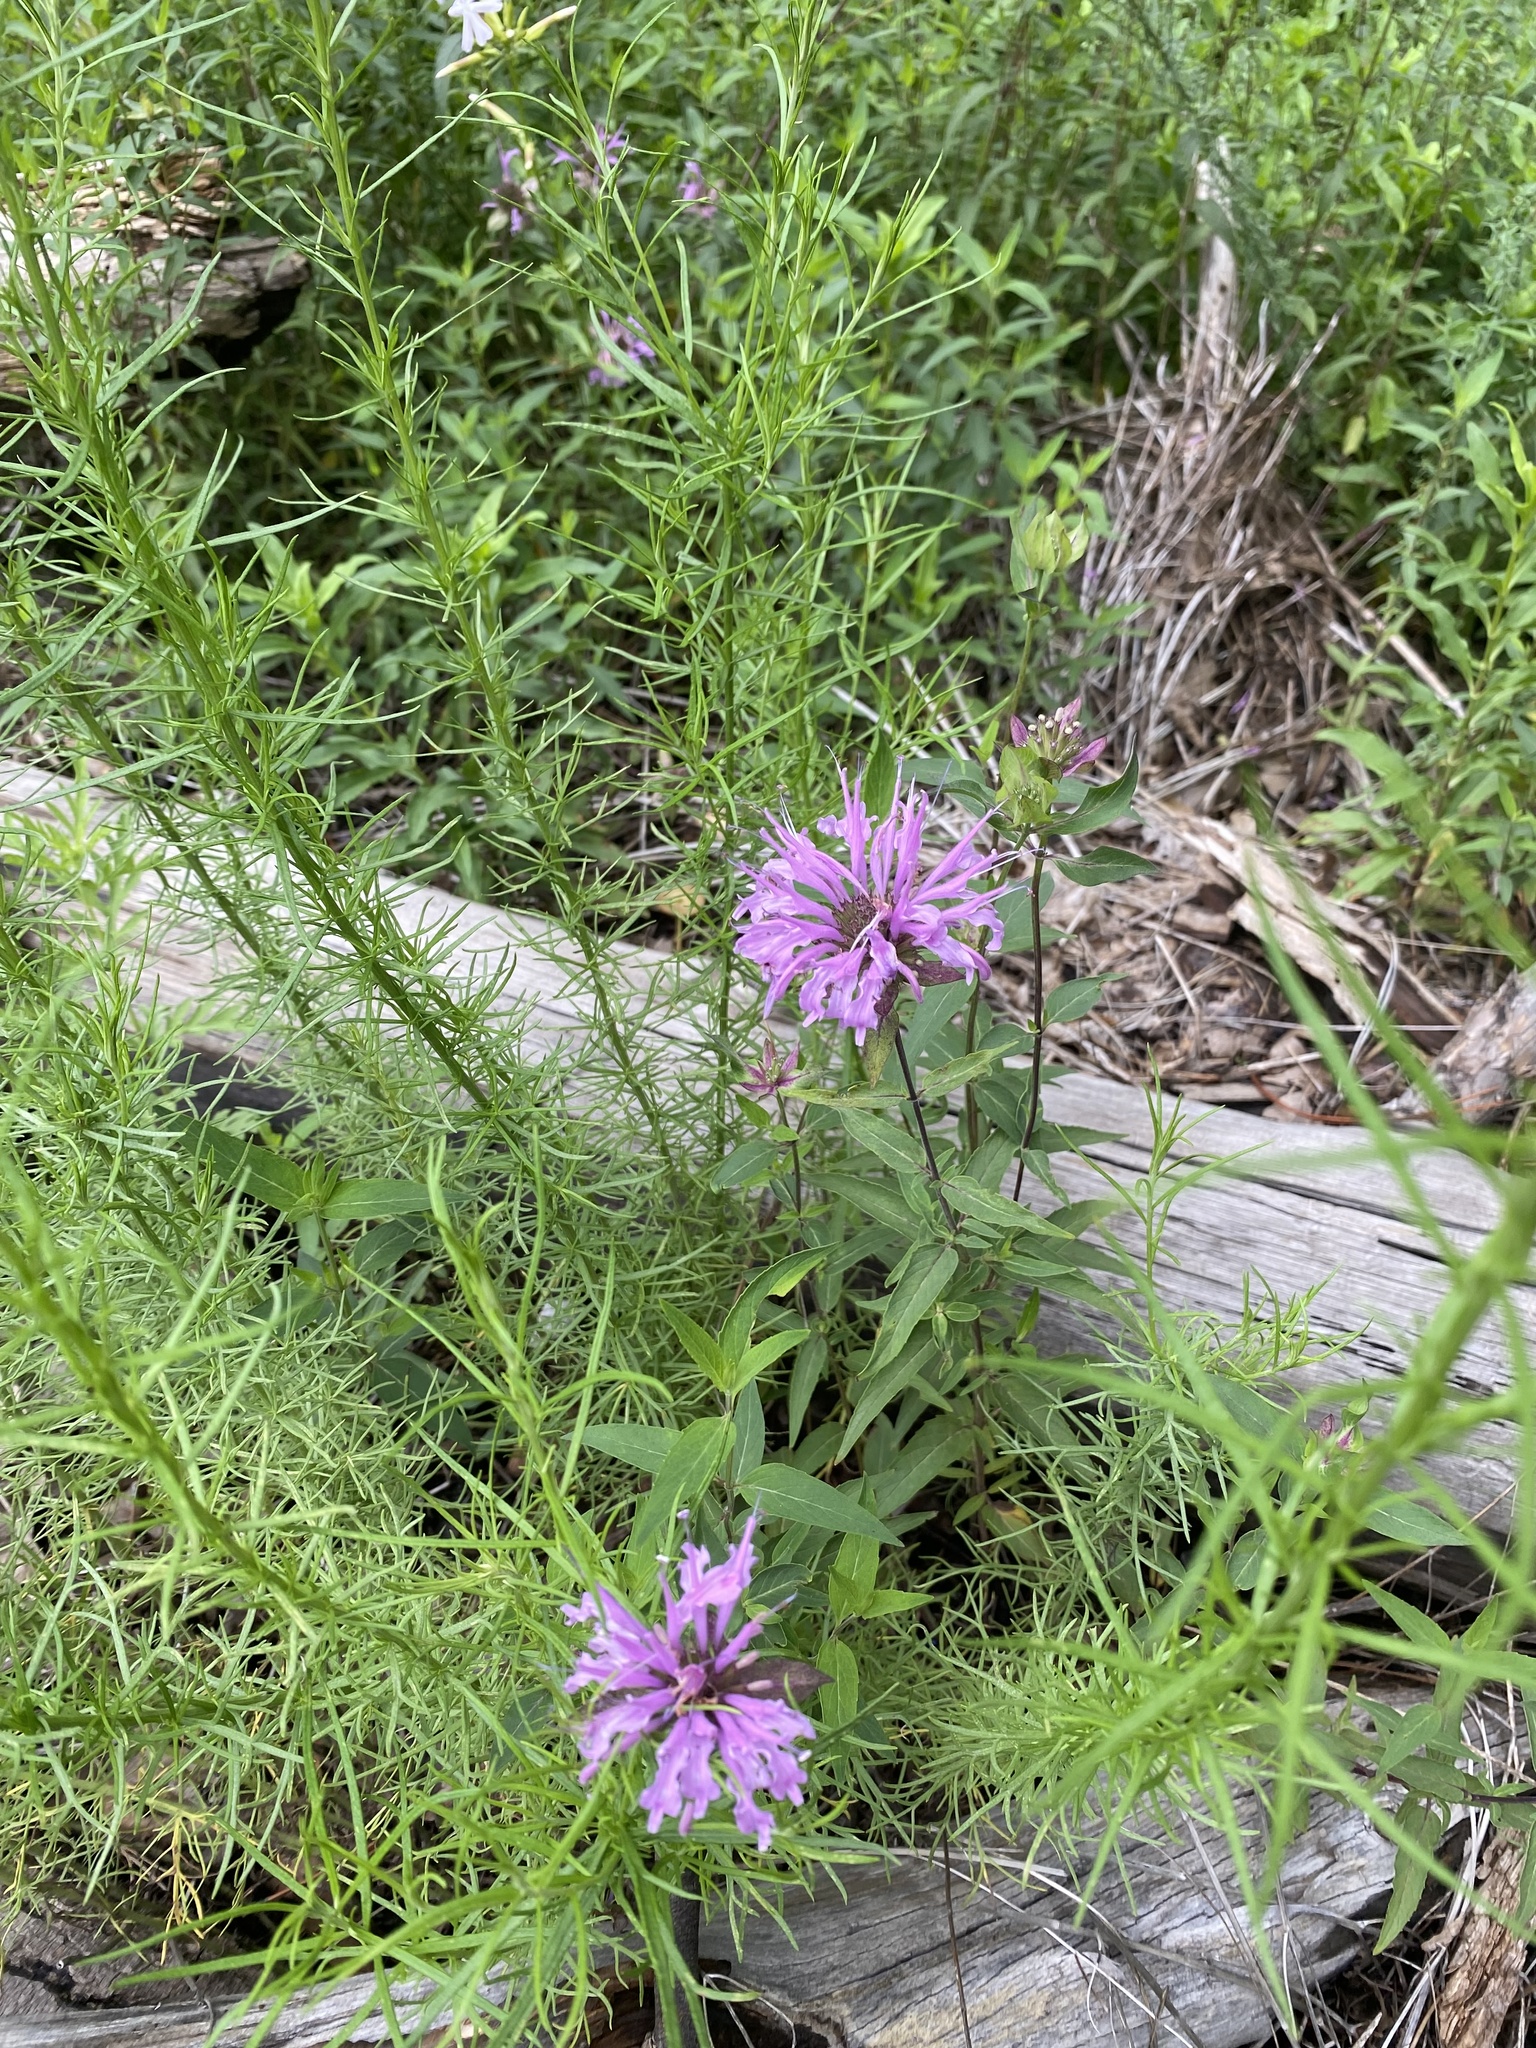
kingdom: Plantae
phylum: Tracheophyta
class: Magnoliopsida
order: Lamiales
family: Lamiaceae
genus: Monarda
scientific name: Monarda fistulosa
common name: Purple beebalm
